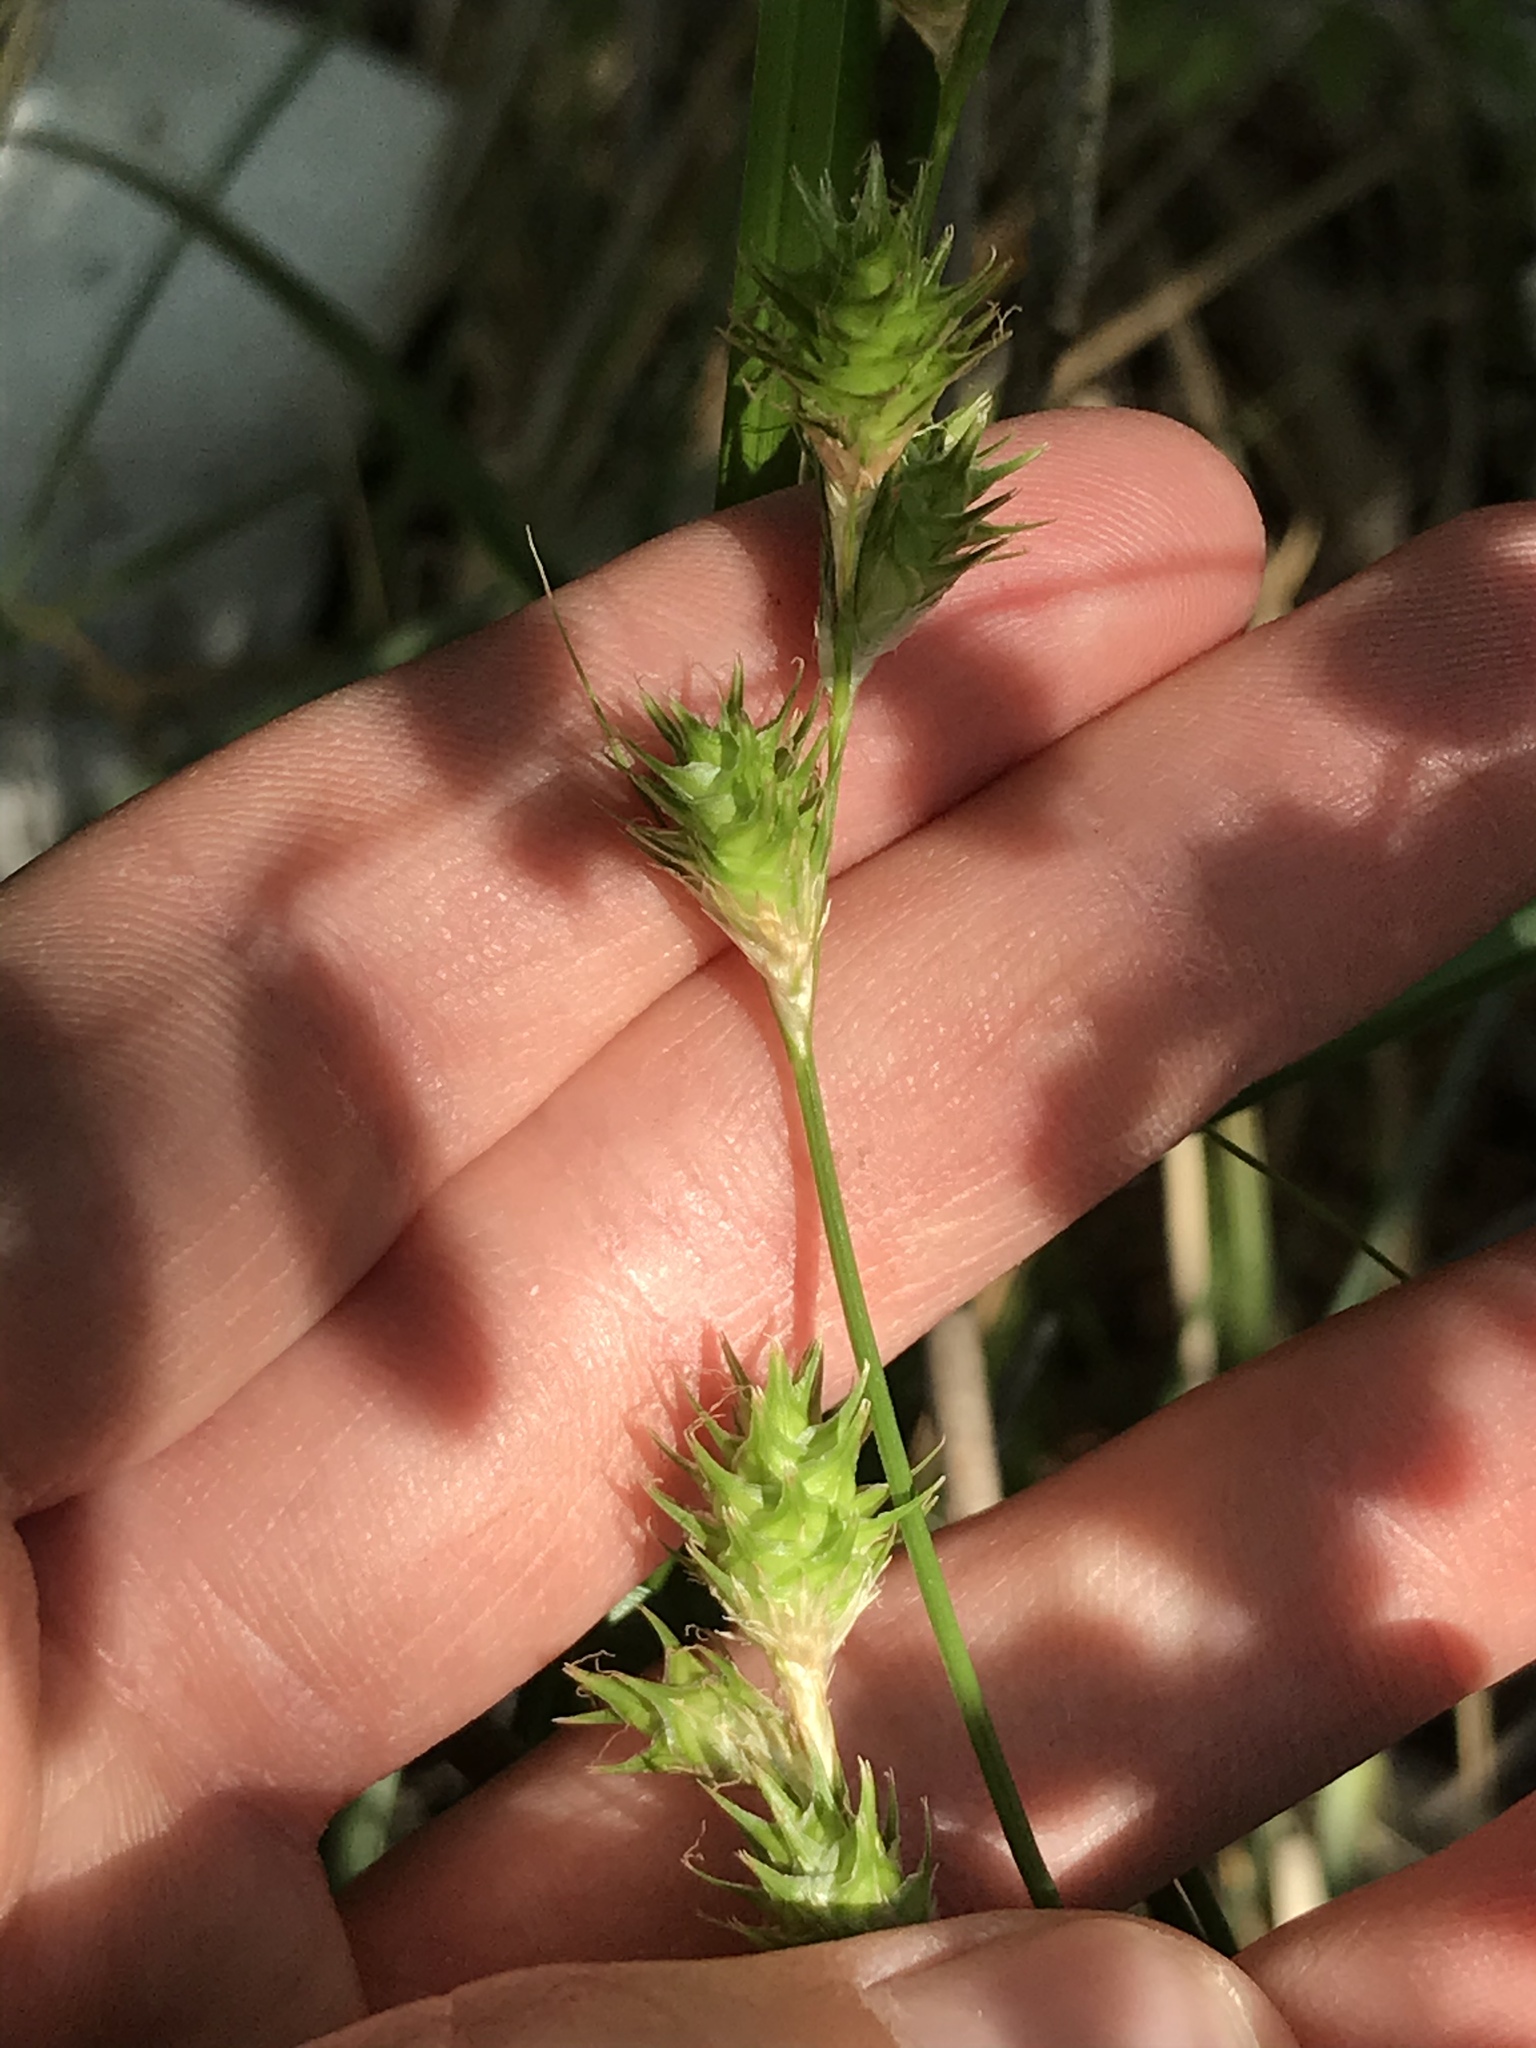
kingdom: Plantae
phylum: Tracheophyta
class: Liliopsida
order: Poales
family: Cyperaceae
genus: Carex
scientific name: Carex tetrastachya
